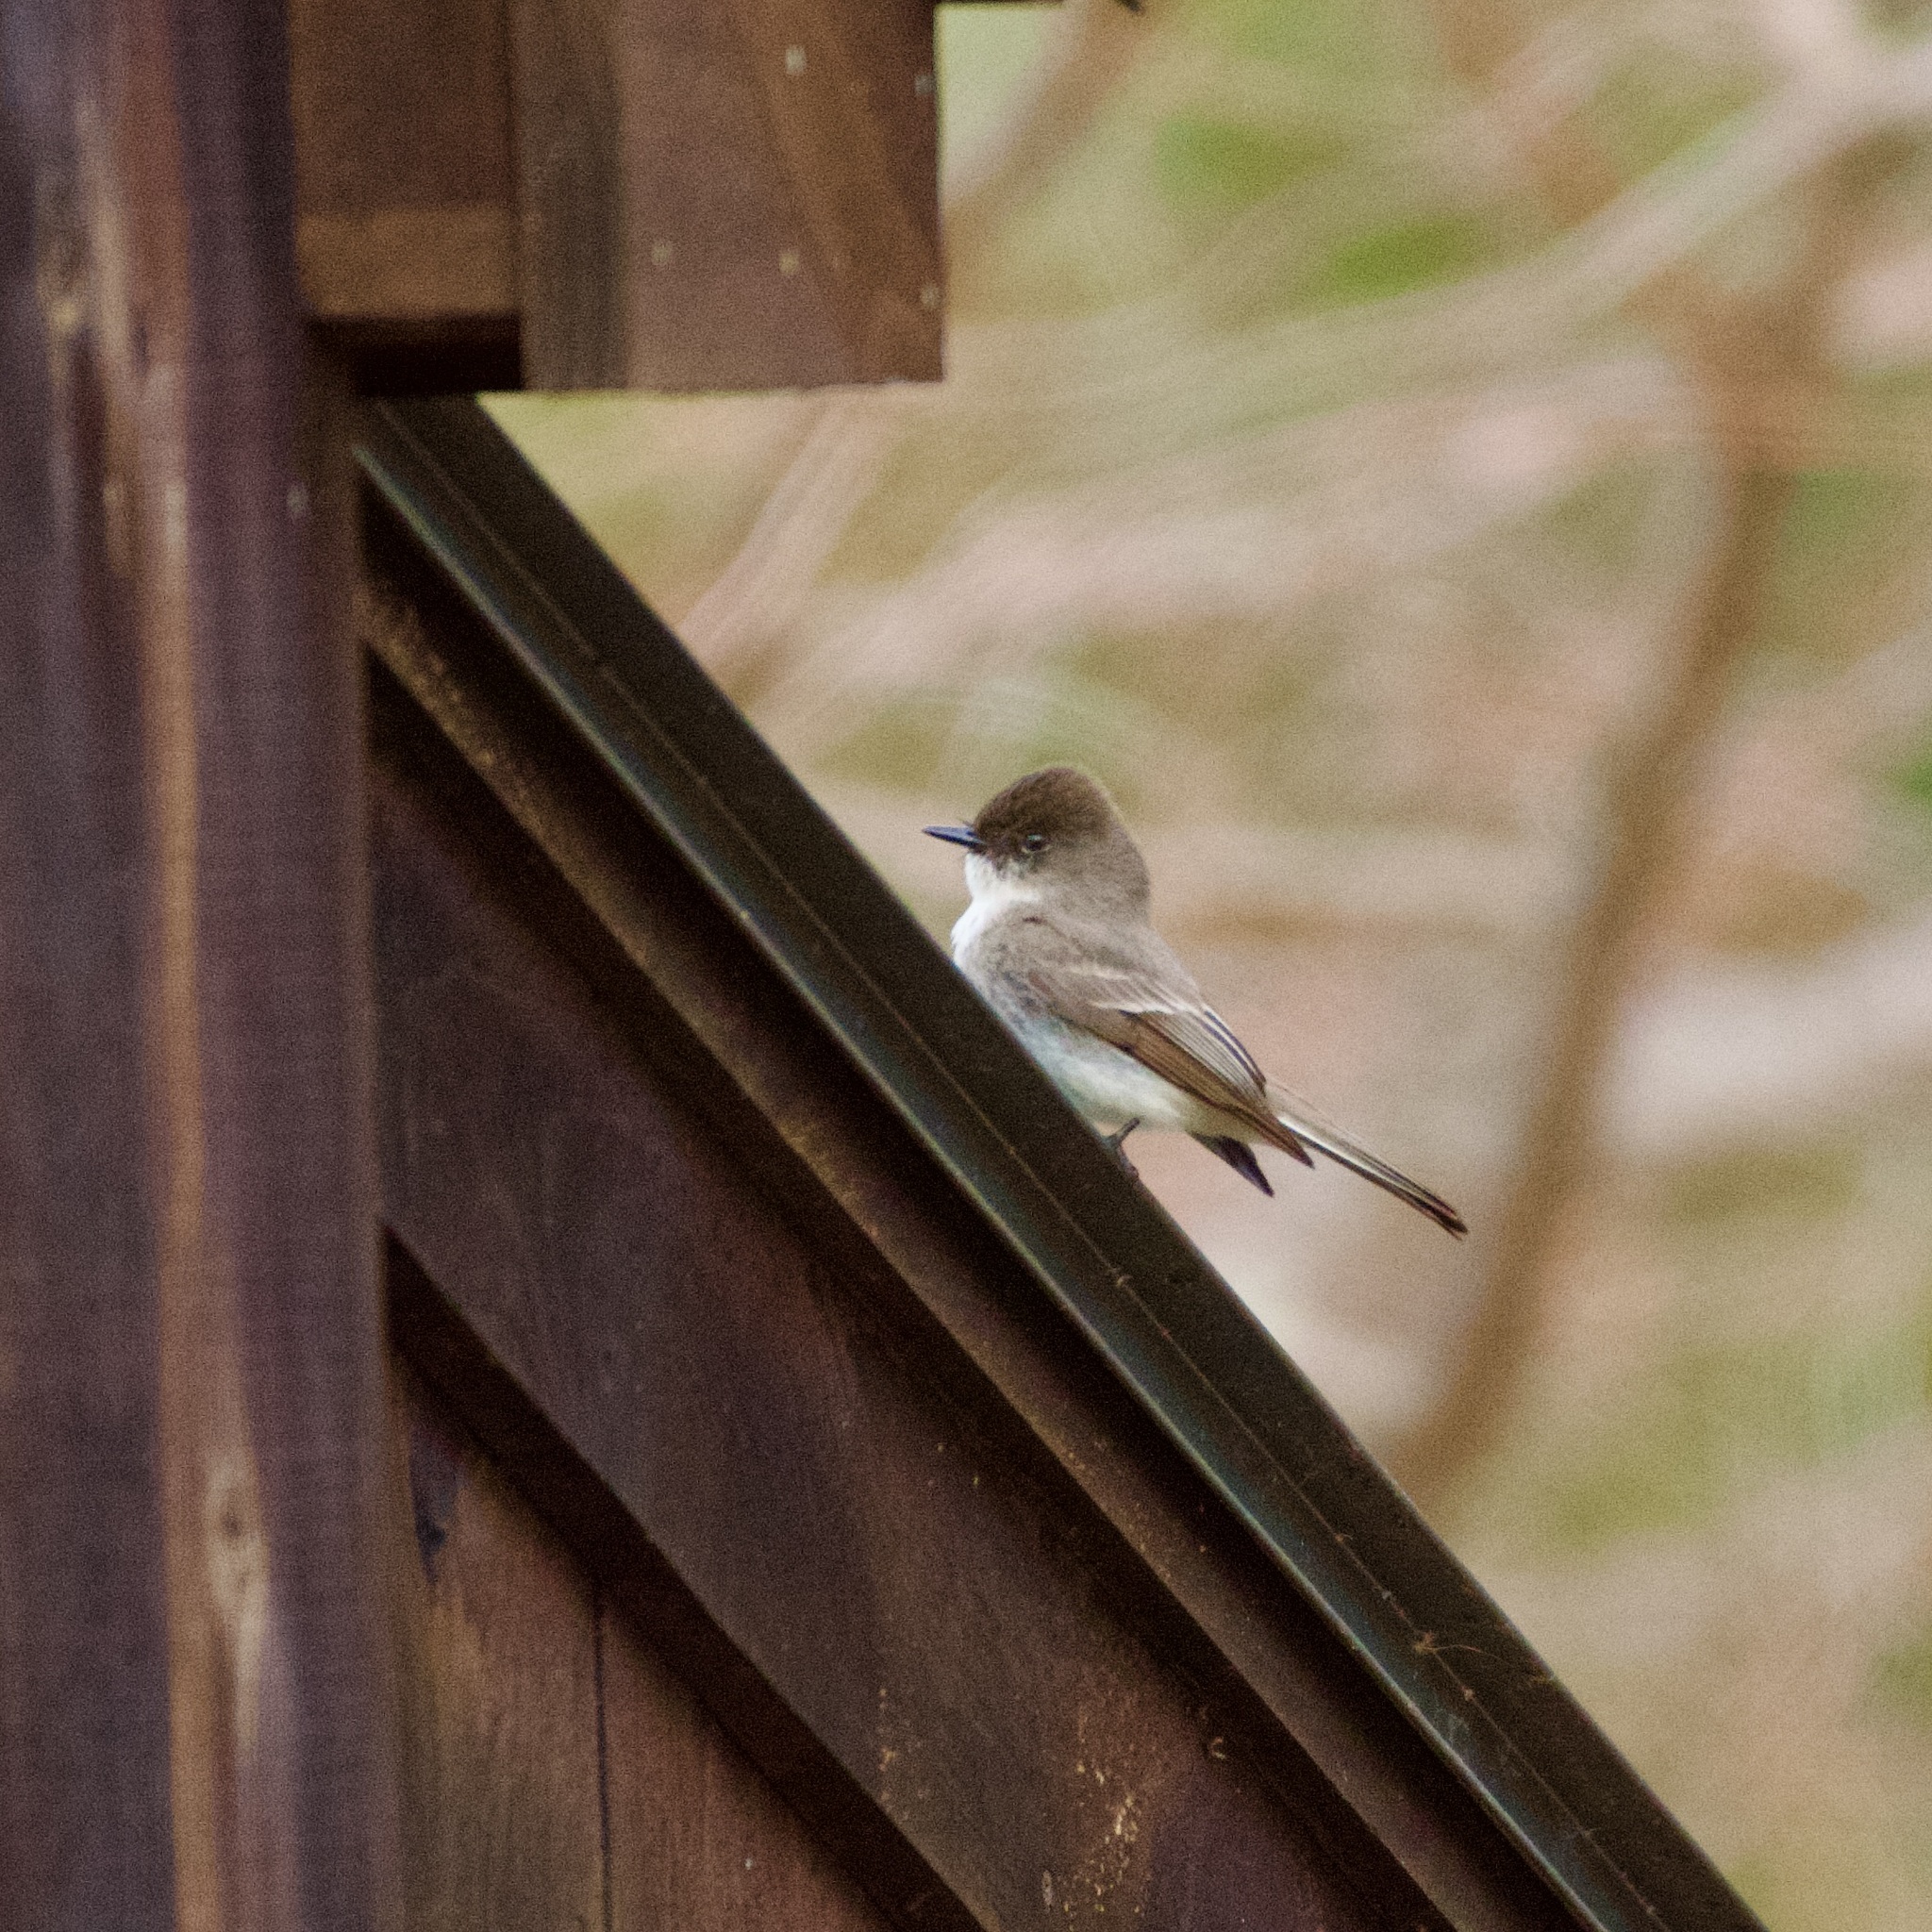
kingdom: Animalia
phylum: Chordata
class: Aves
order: Passeriformes
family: Tyrannidae
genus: Sayornis
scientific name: Sayornis phoebe
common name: Eastern phoebe
